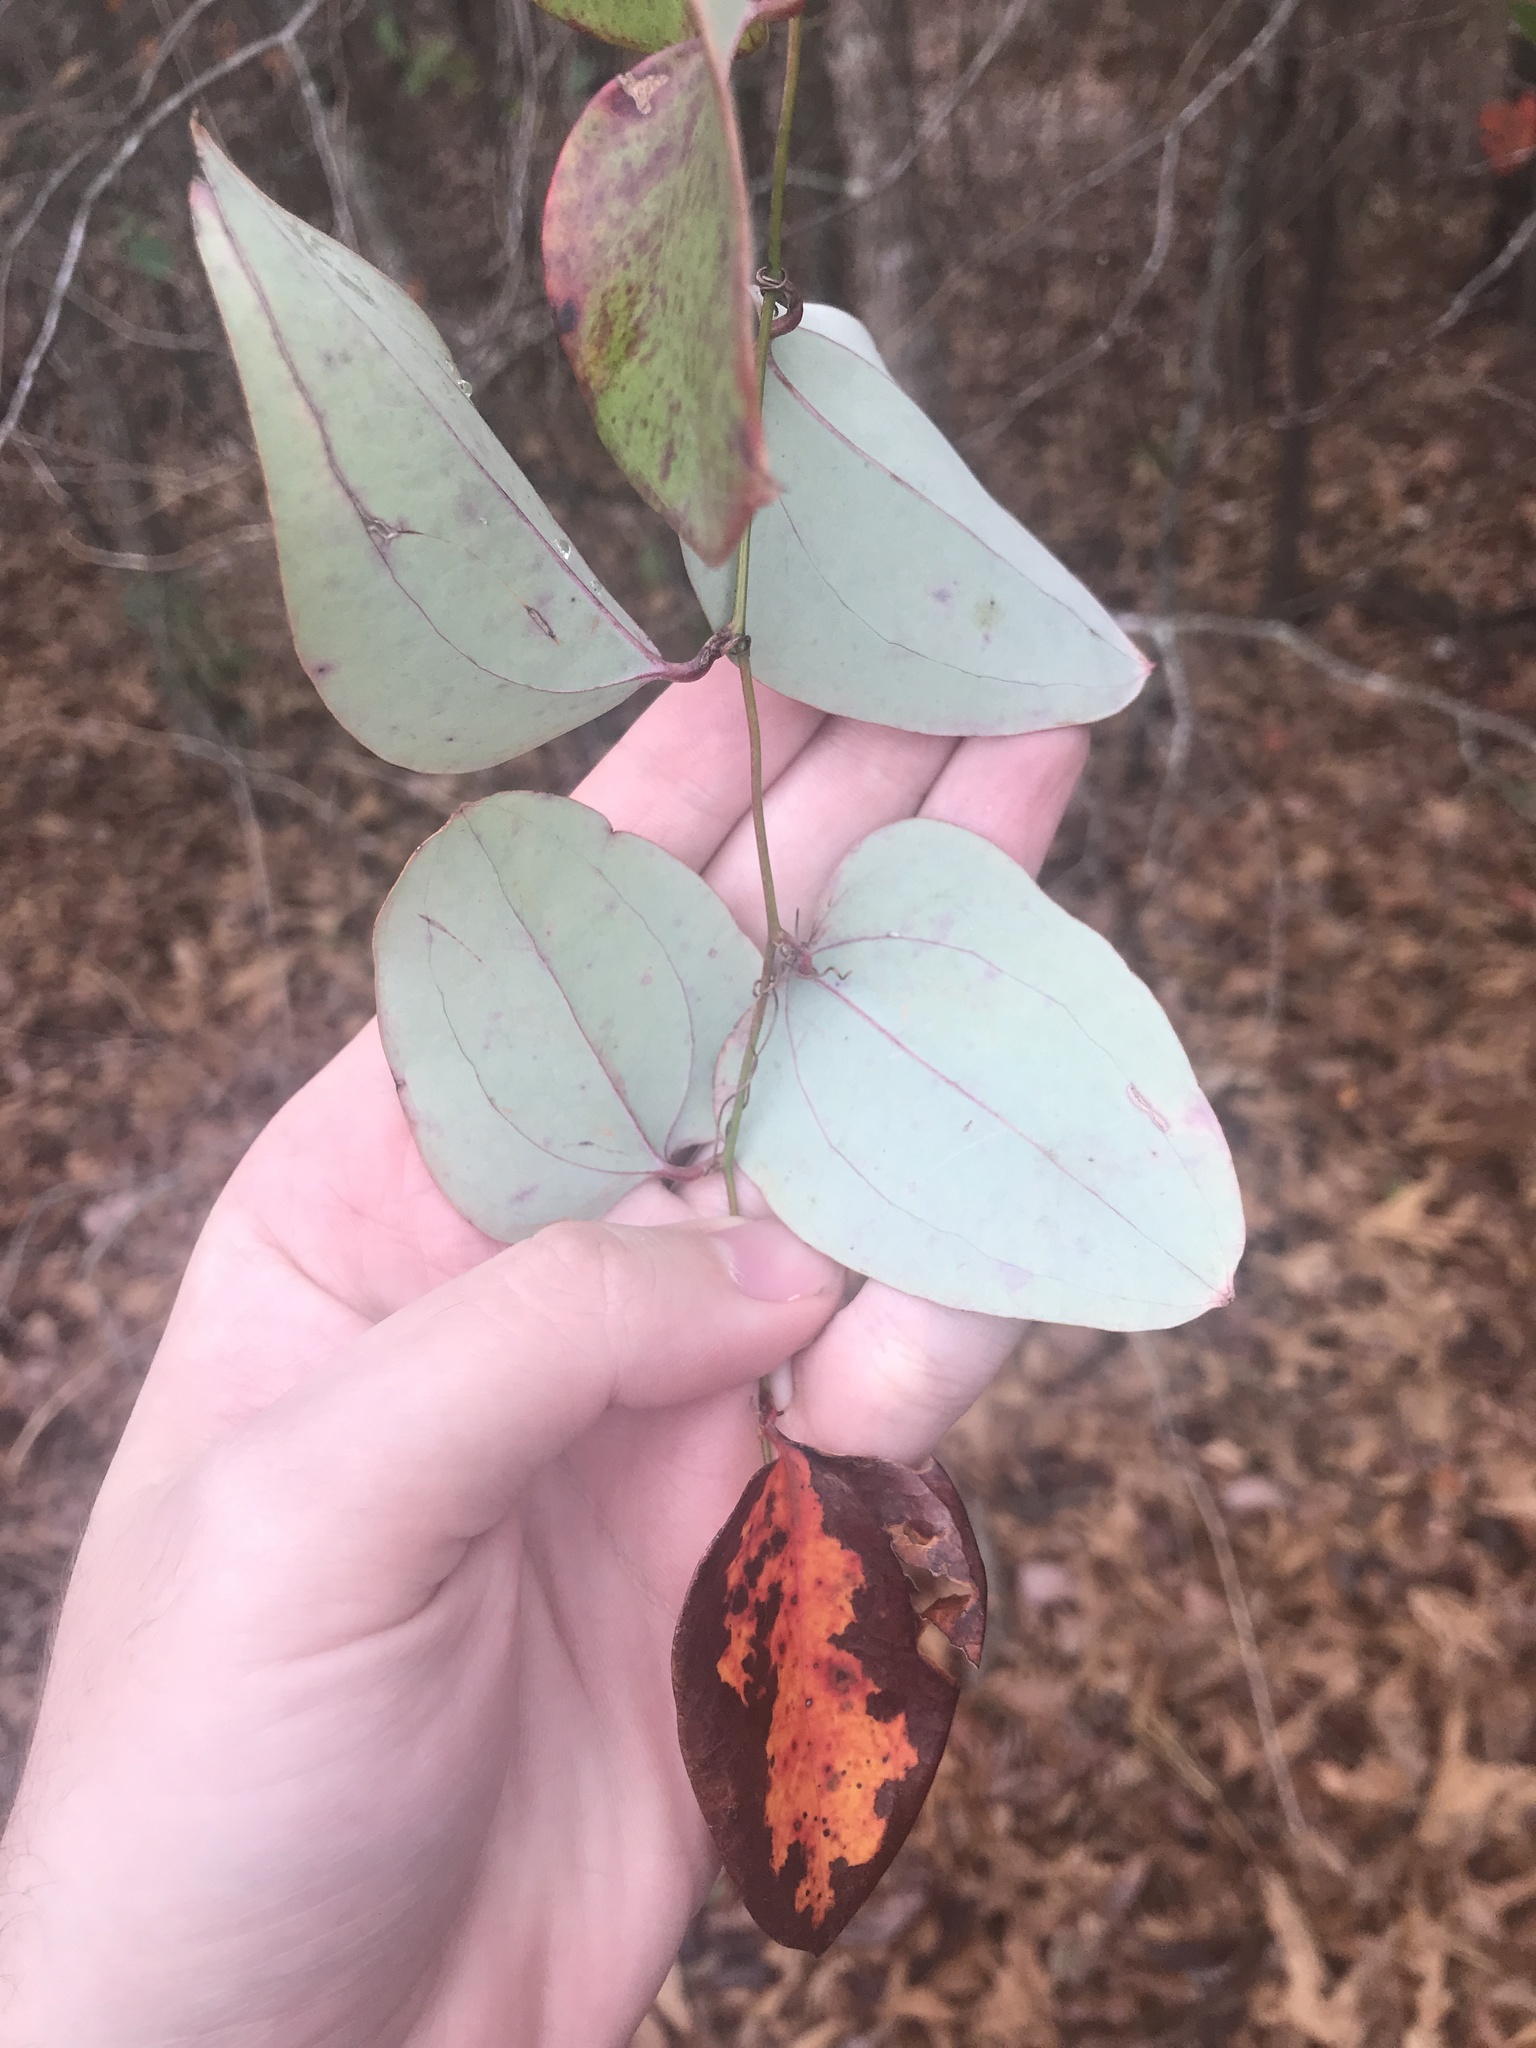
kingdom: Plantae
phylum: Tracheophyta
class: Liliopsida
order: Liliales
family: Smilacaceae
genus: Smilax
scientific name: Smilax glauca
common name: Cat greenbrier
